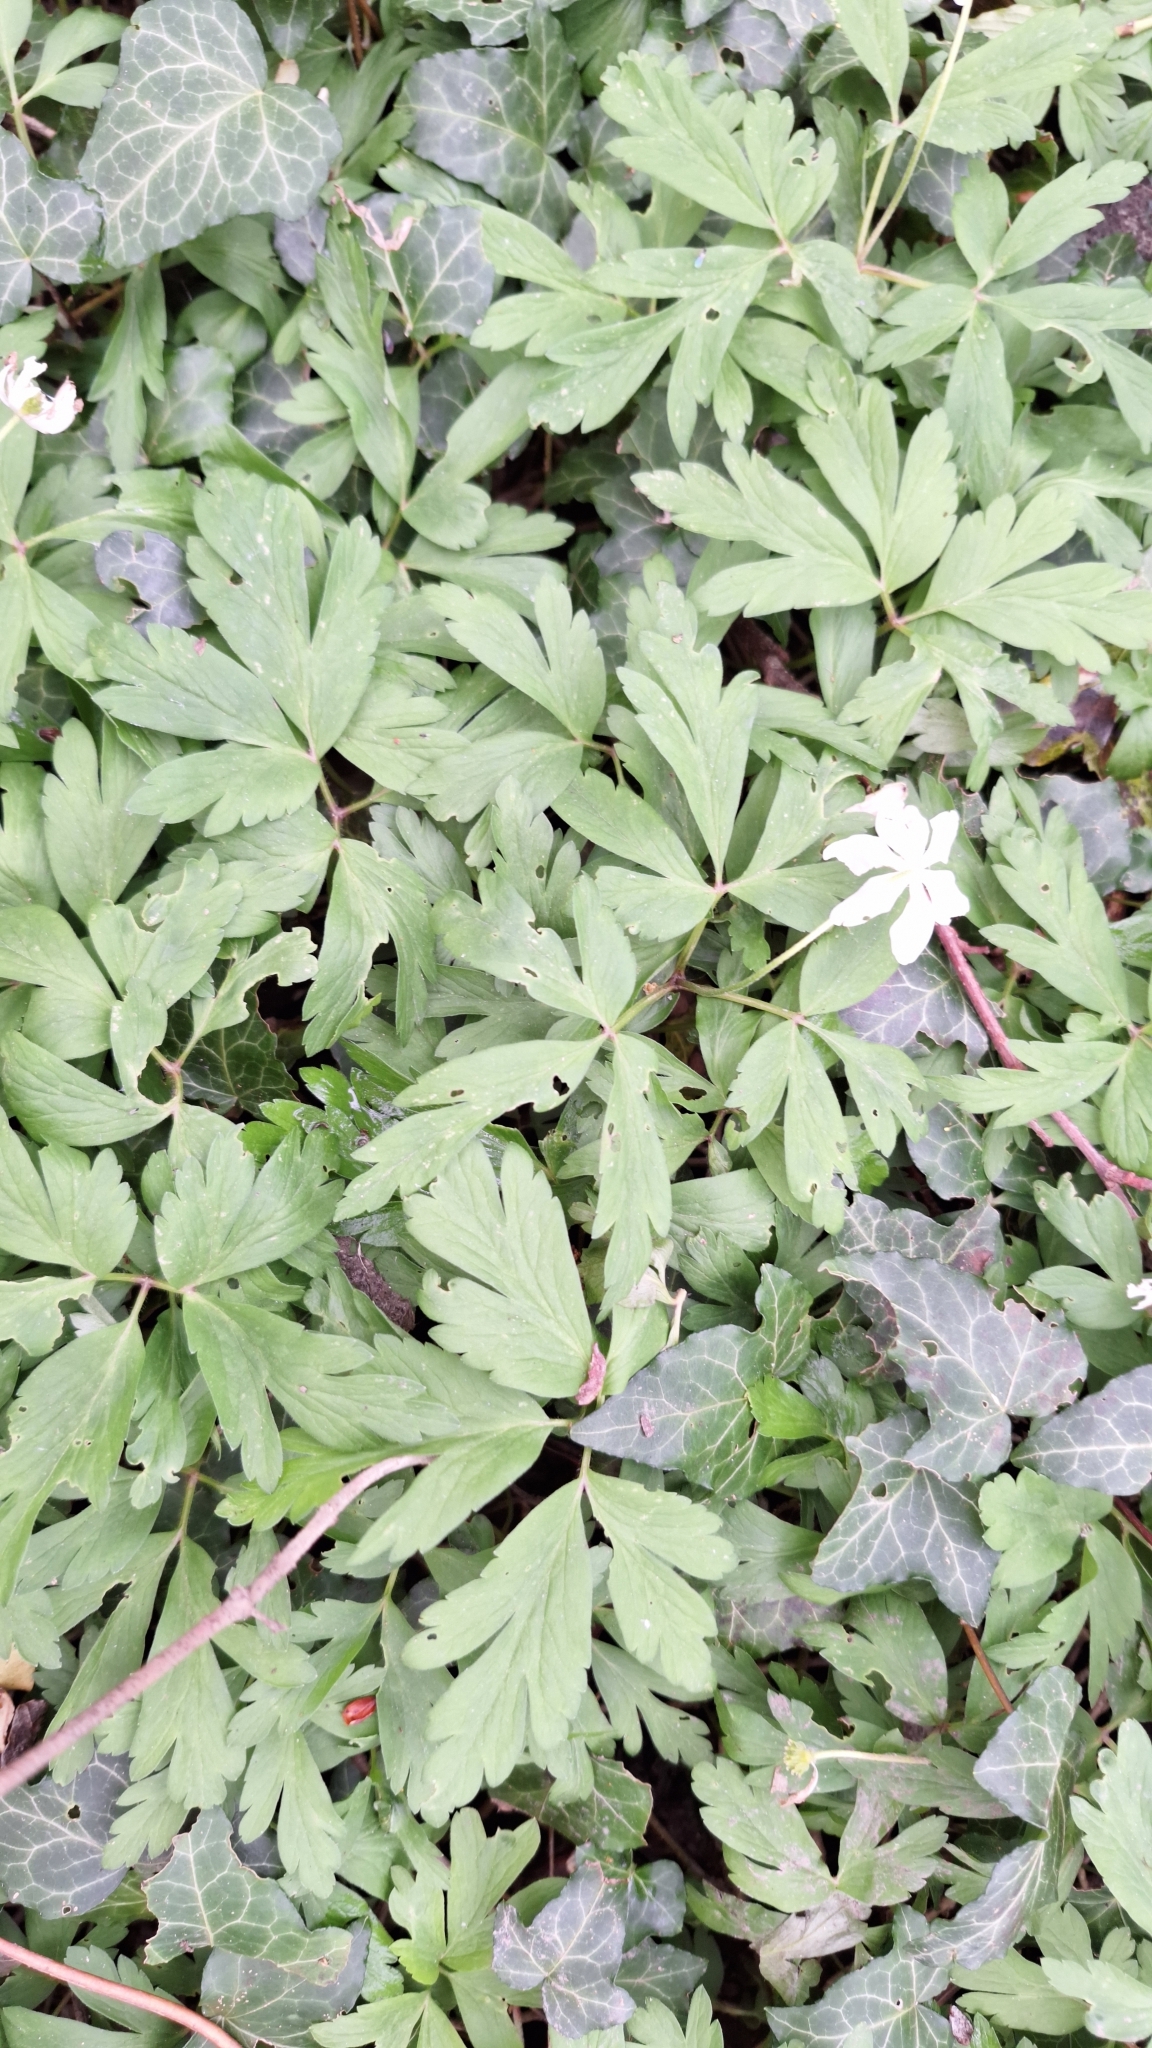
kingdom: Plantae
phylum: Tracheophyta
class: Magnoliopsida
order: Ranunculales
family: Ranunculaceae
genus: Anemone
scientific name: Anemone nemorosa
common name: Wood anemone
